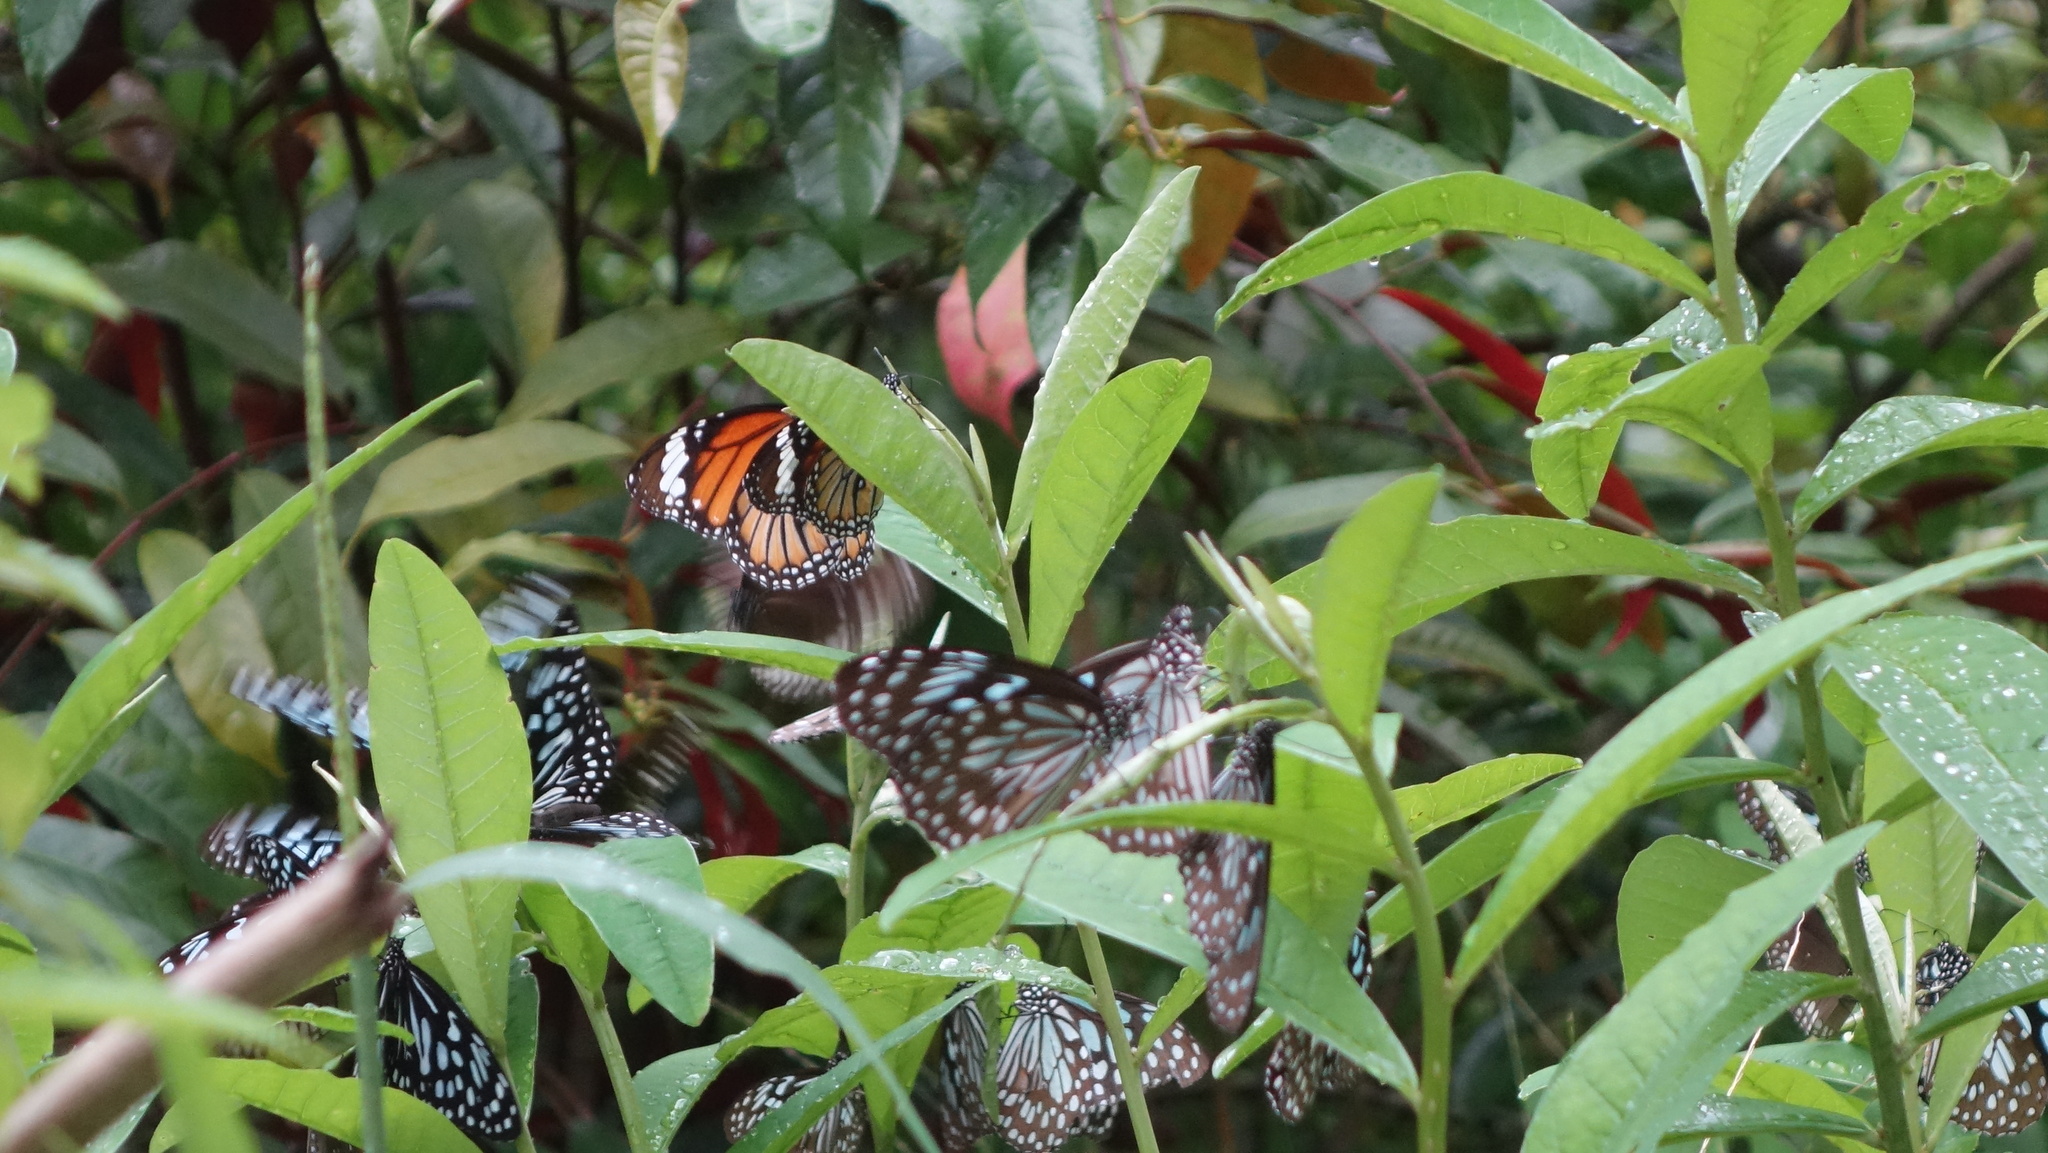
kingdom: Animalia
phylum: Arthropoda
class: Insecta
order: Lepidoptera
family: Nymphalidae
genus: Danaus
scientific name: Danaus genutia
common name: Common tiger butterfly
